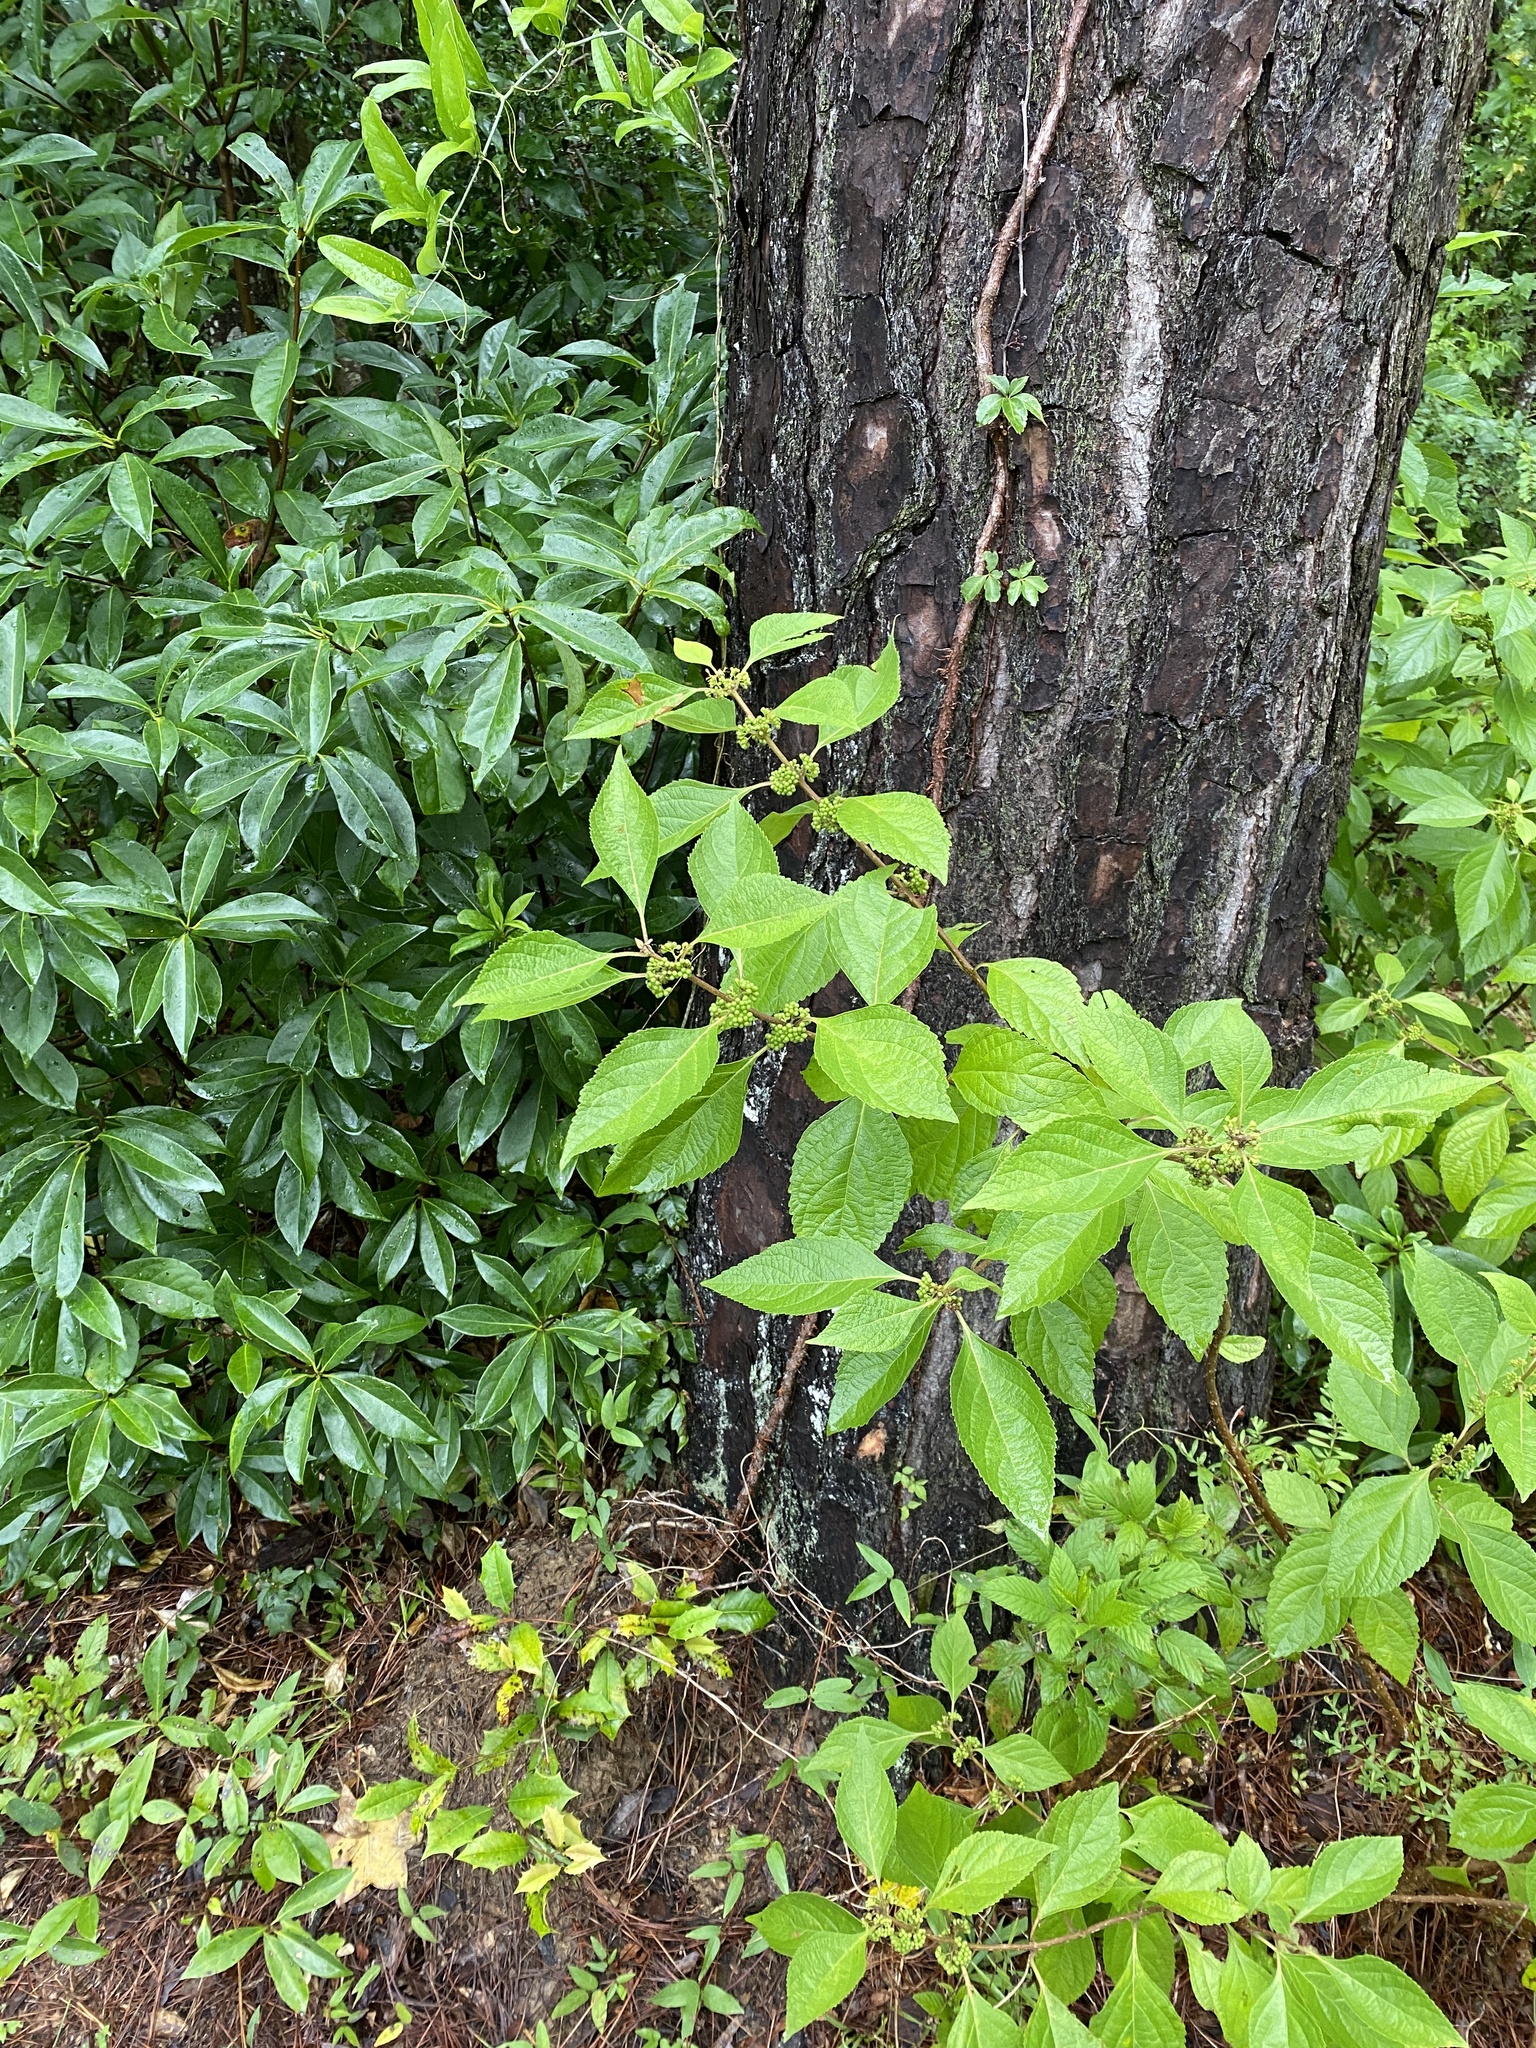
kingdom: Plantae
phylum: Tracheophyta
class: Magnoliopsida
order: Lamiales
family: Lamiaceae
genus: Callicarpa
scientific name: Callicarpa americana
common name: American beautyberry
